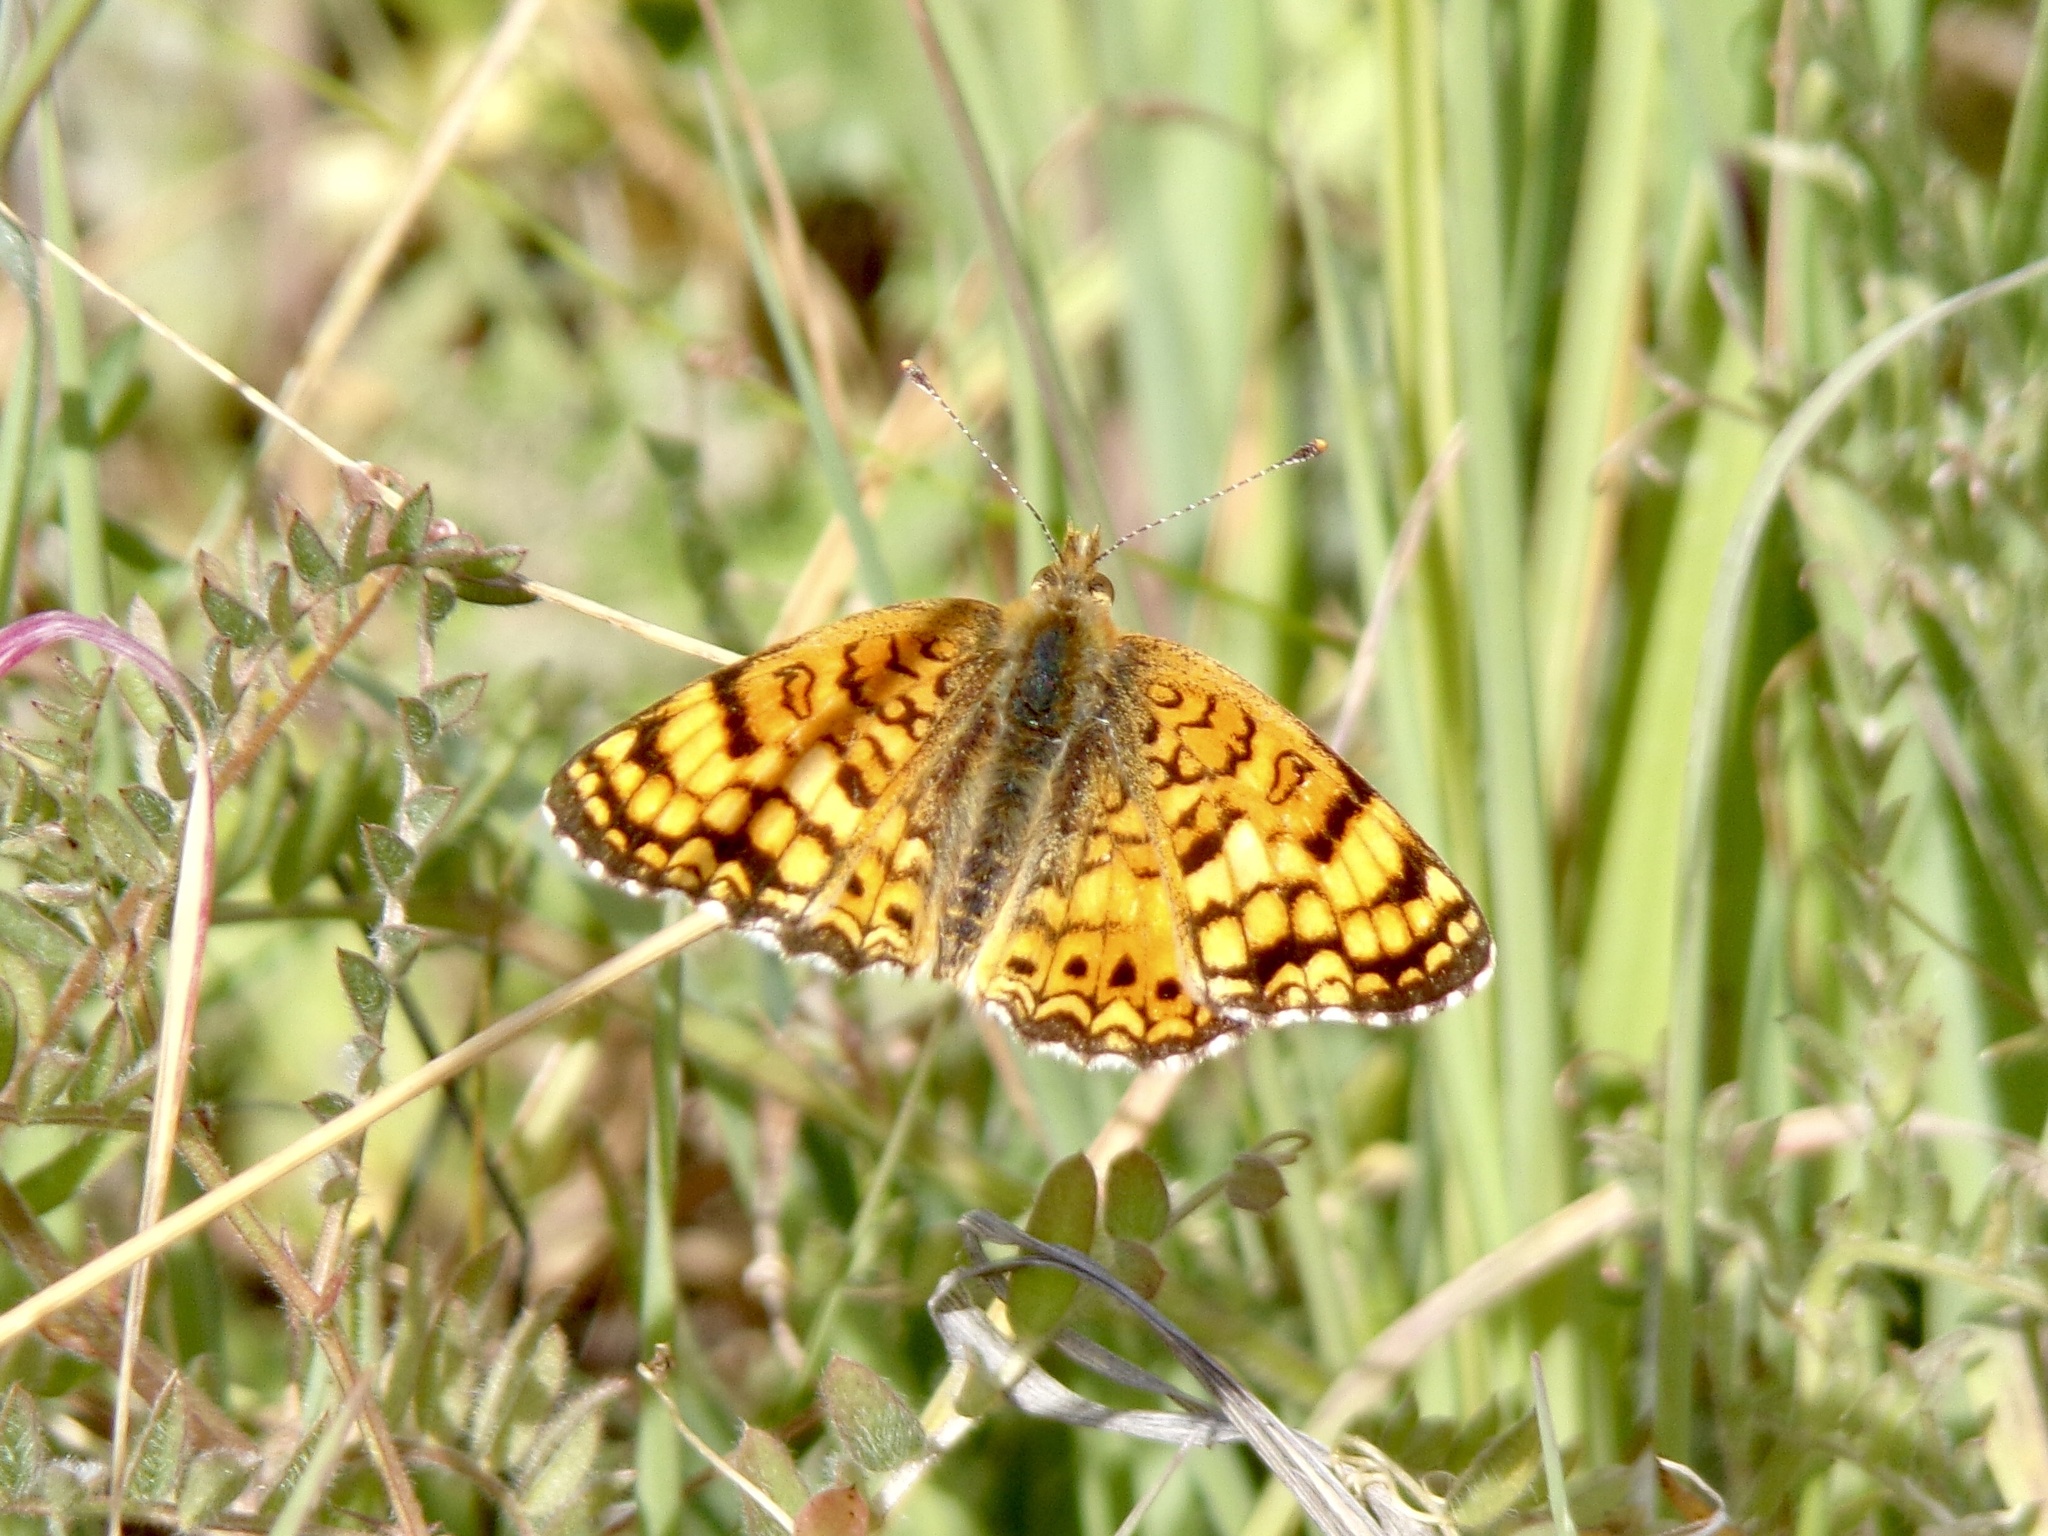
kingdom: Animalia
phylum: Arthropoda
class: Insecta
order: Lepidoptera
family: Nymphalidae
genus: Eresia
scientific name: Eresia aveyrona
